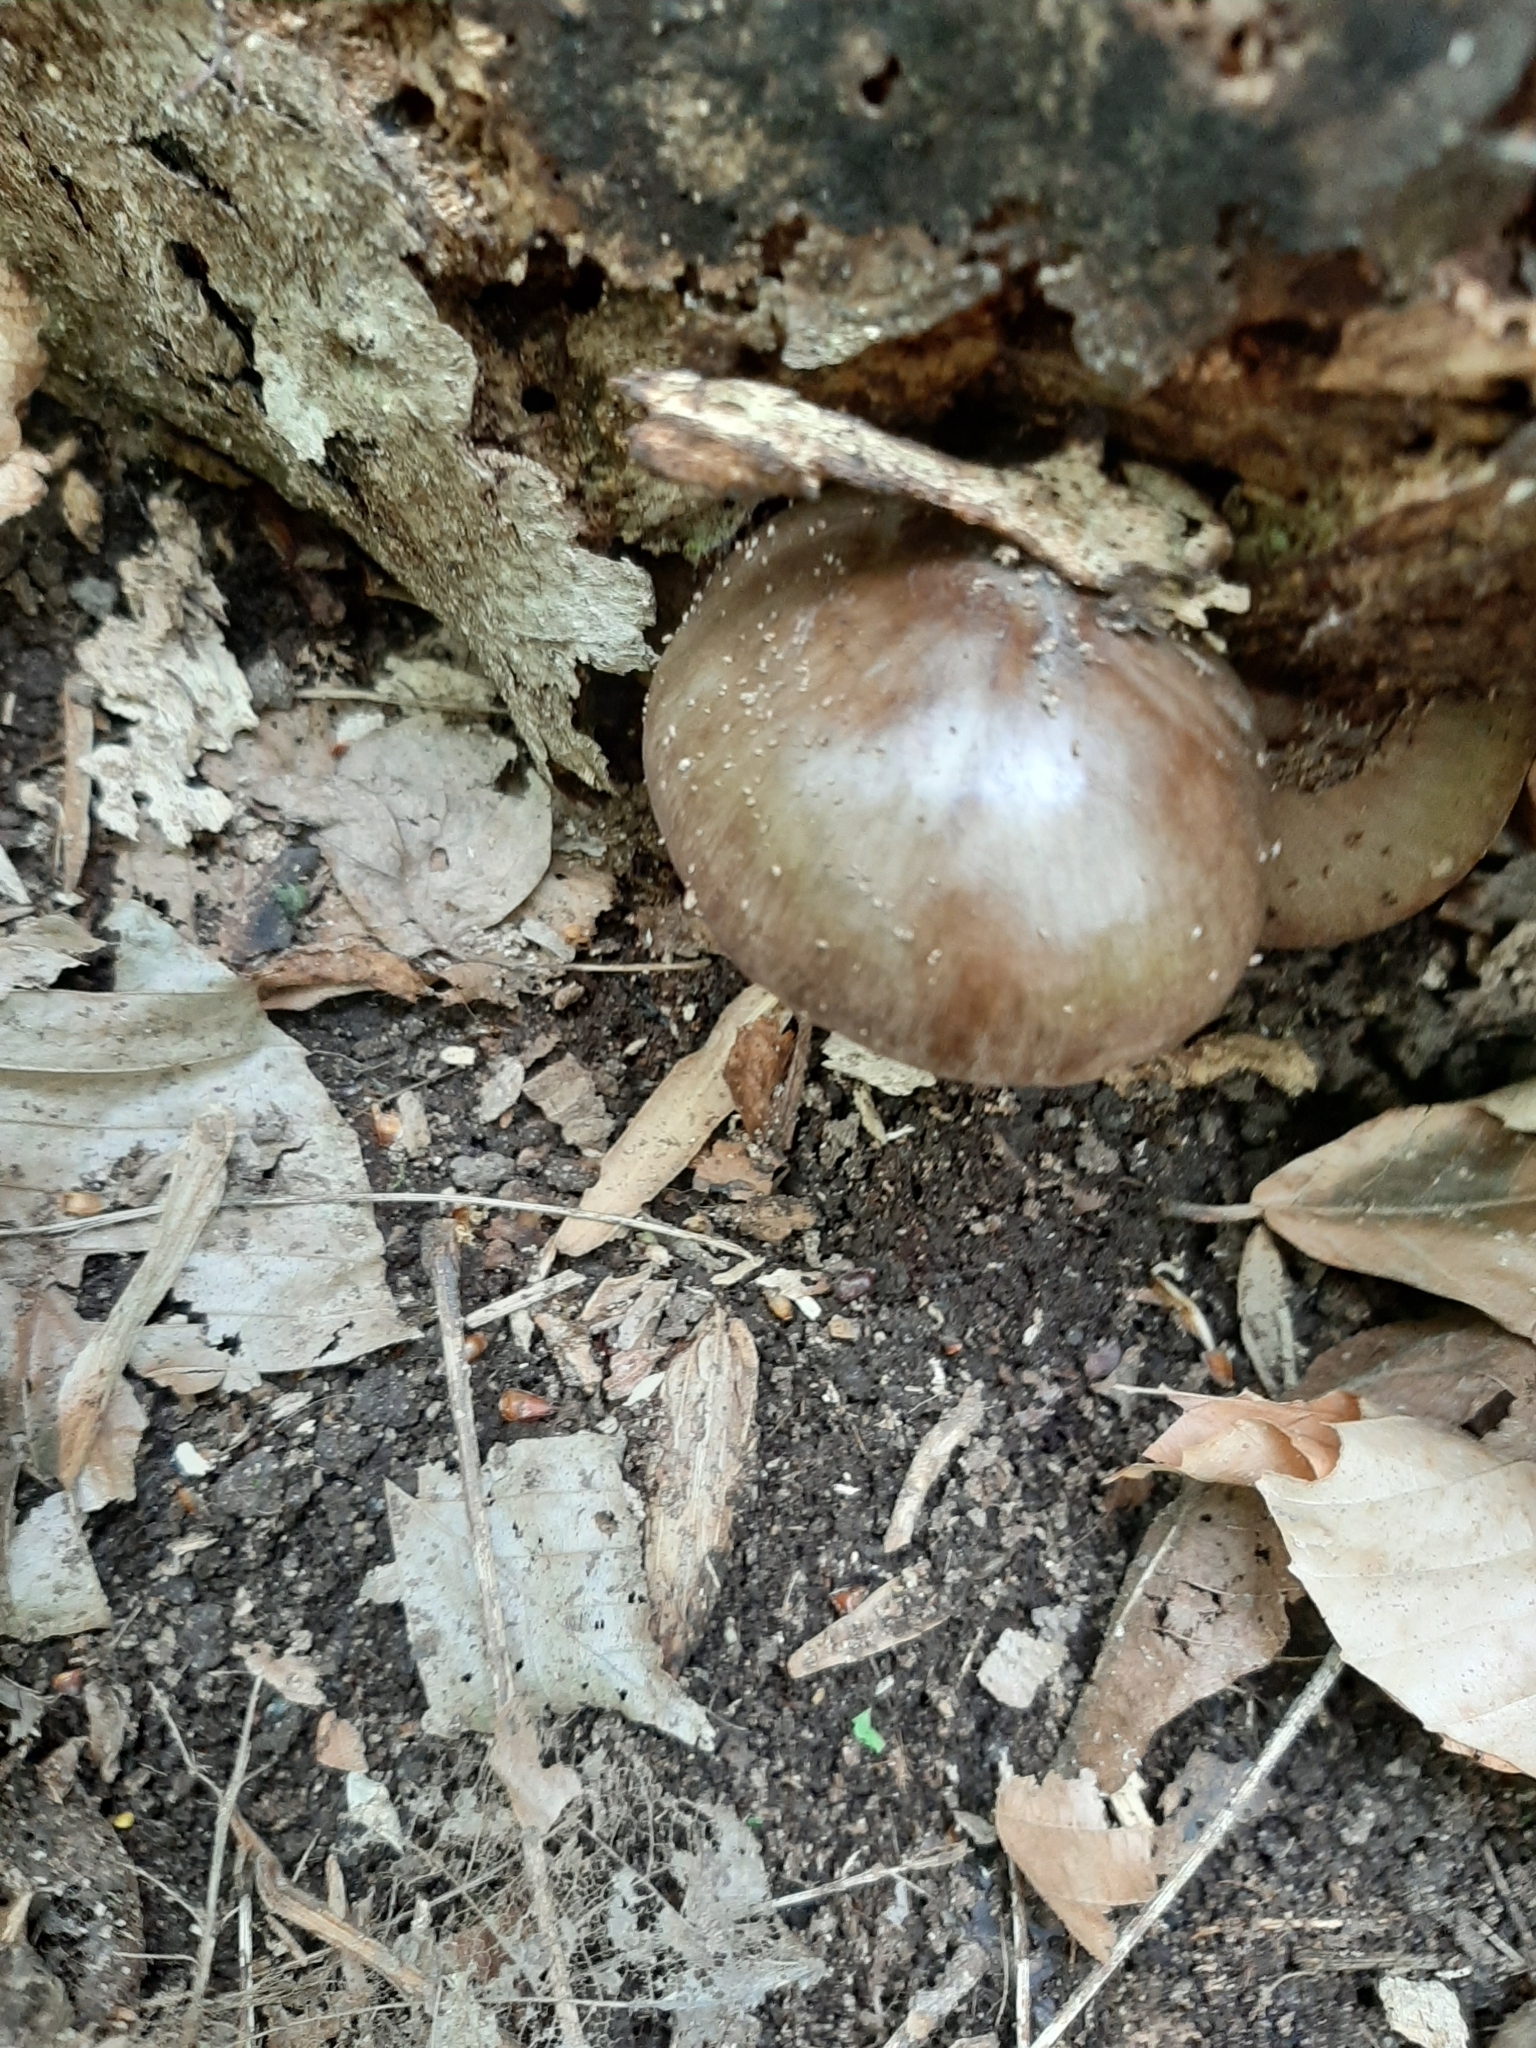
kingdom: Fungi
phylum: Basidiomycota
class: Agaricomycetes
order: Agaricales
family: Pluteaceae
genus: Pluteus
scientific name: Pluteus cervinus
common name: Deer shield
